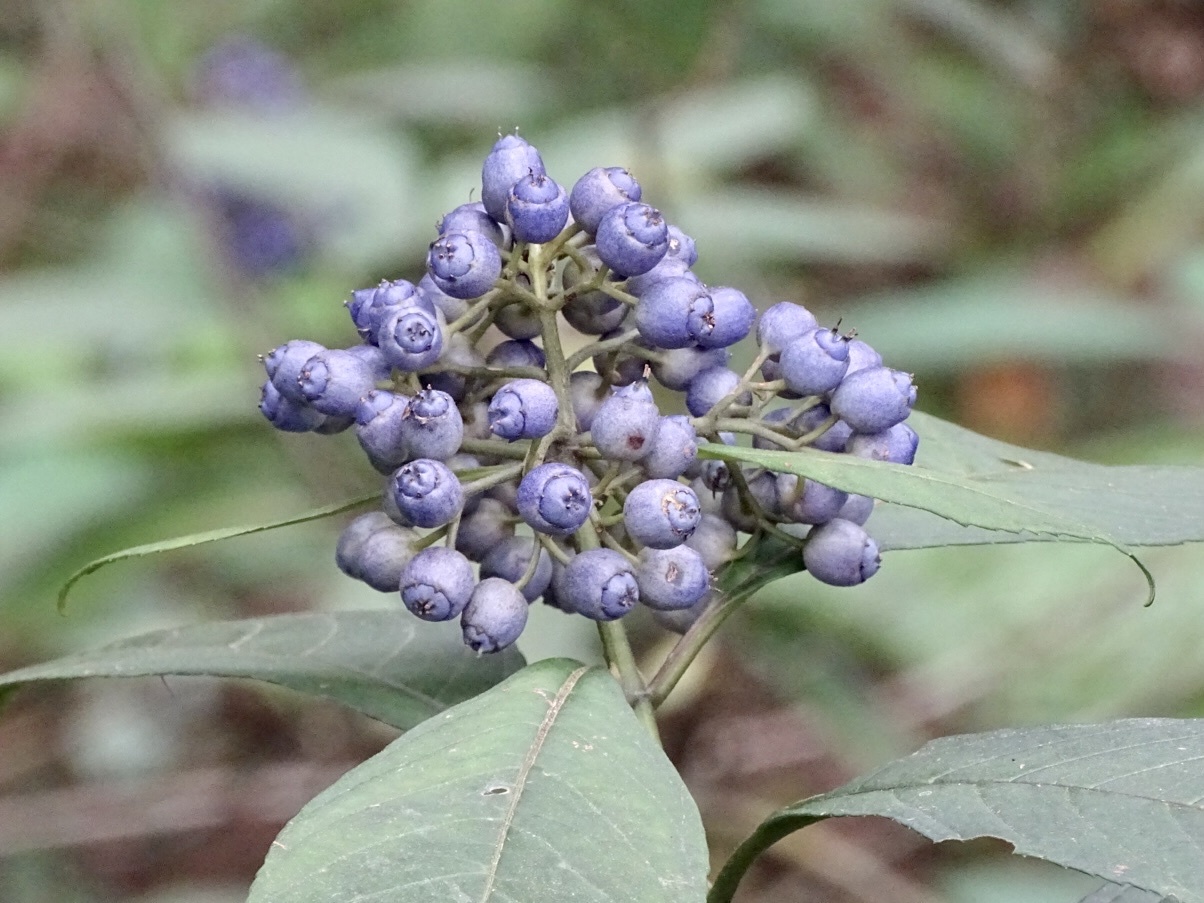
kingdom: Plantae
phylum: Tracheophyta
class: Magnoliopsida
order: Cornales
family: Hydrangeaceae
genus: Hydrangea
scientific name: Hydrangea febrifuga
